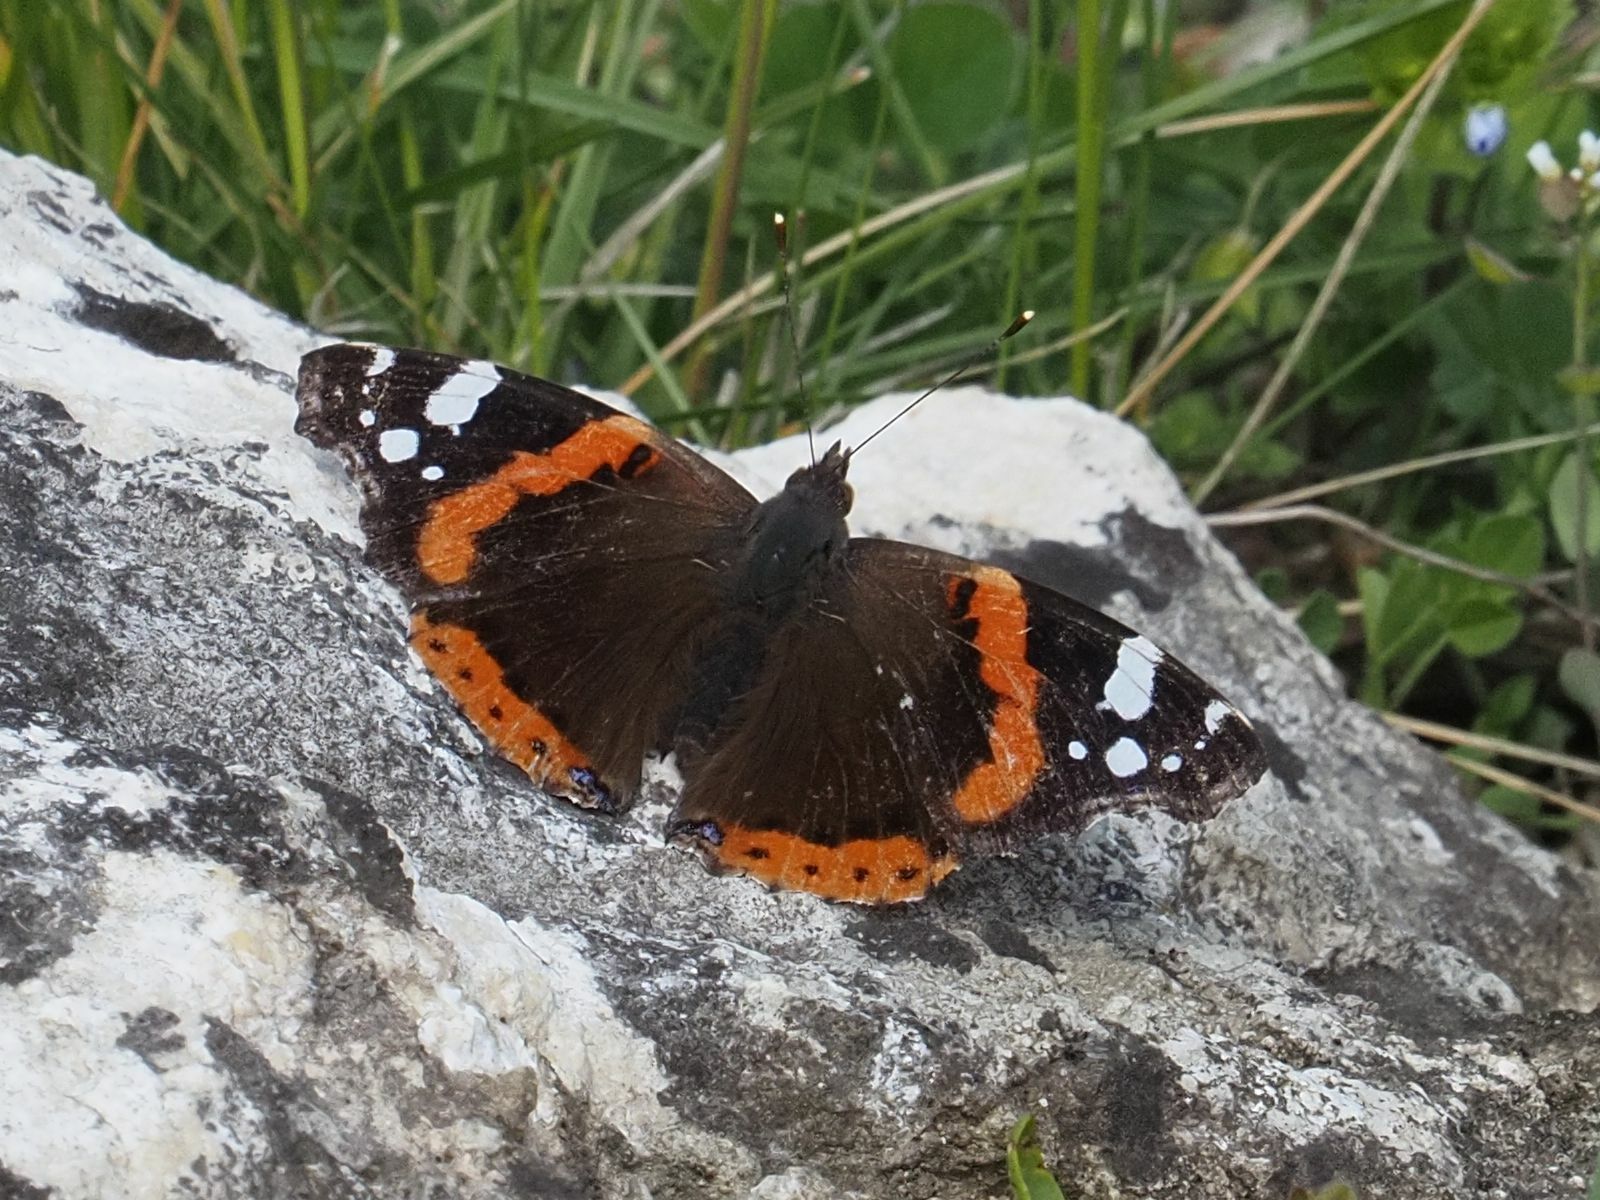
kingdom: Animalia
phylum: Arthropoda
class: Insecta
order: Lepidoptera
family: Nymphalidae
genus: Vanessa
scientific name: Vanessa atalanta
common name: Red admiral
